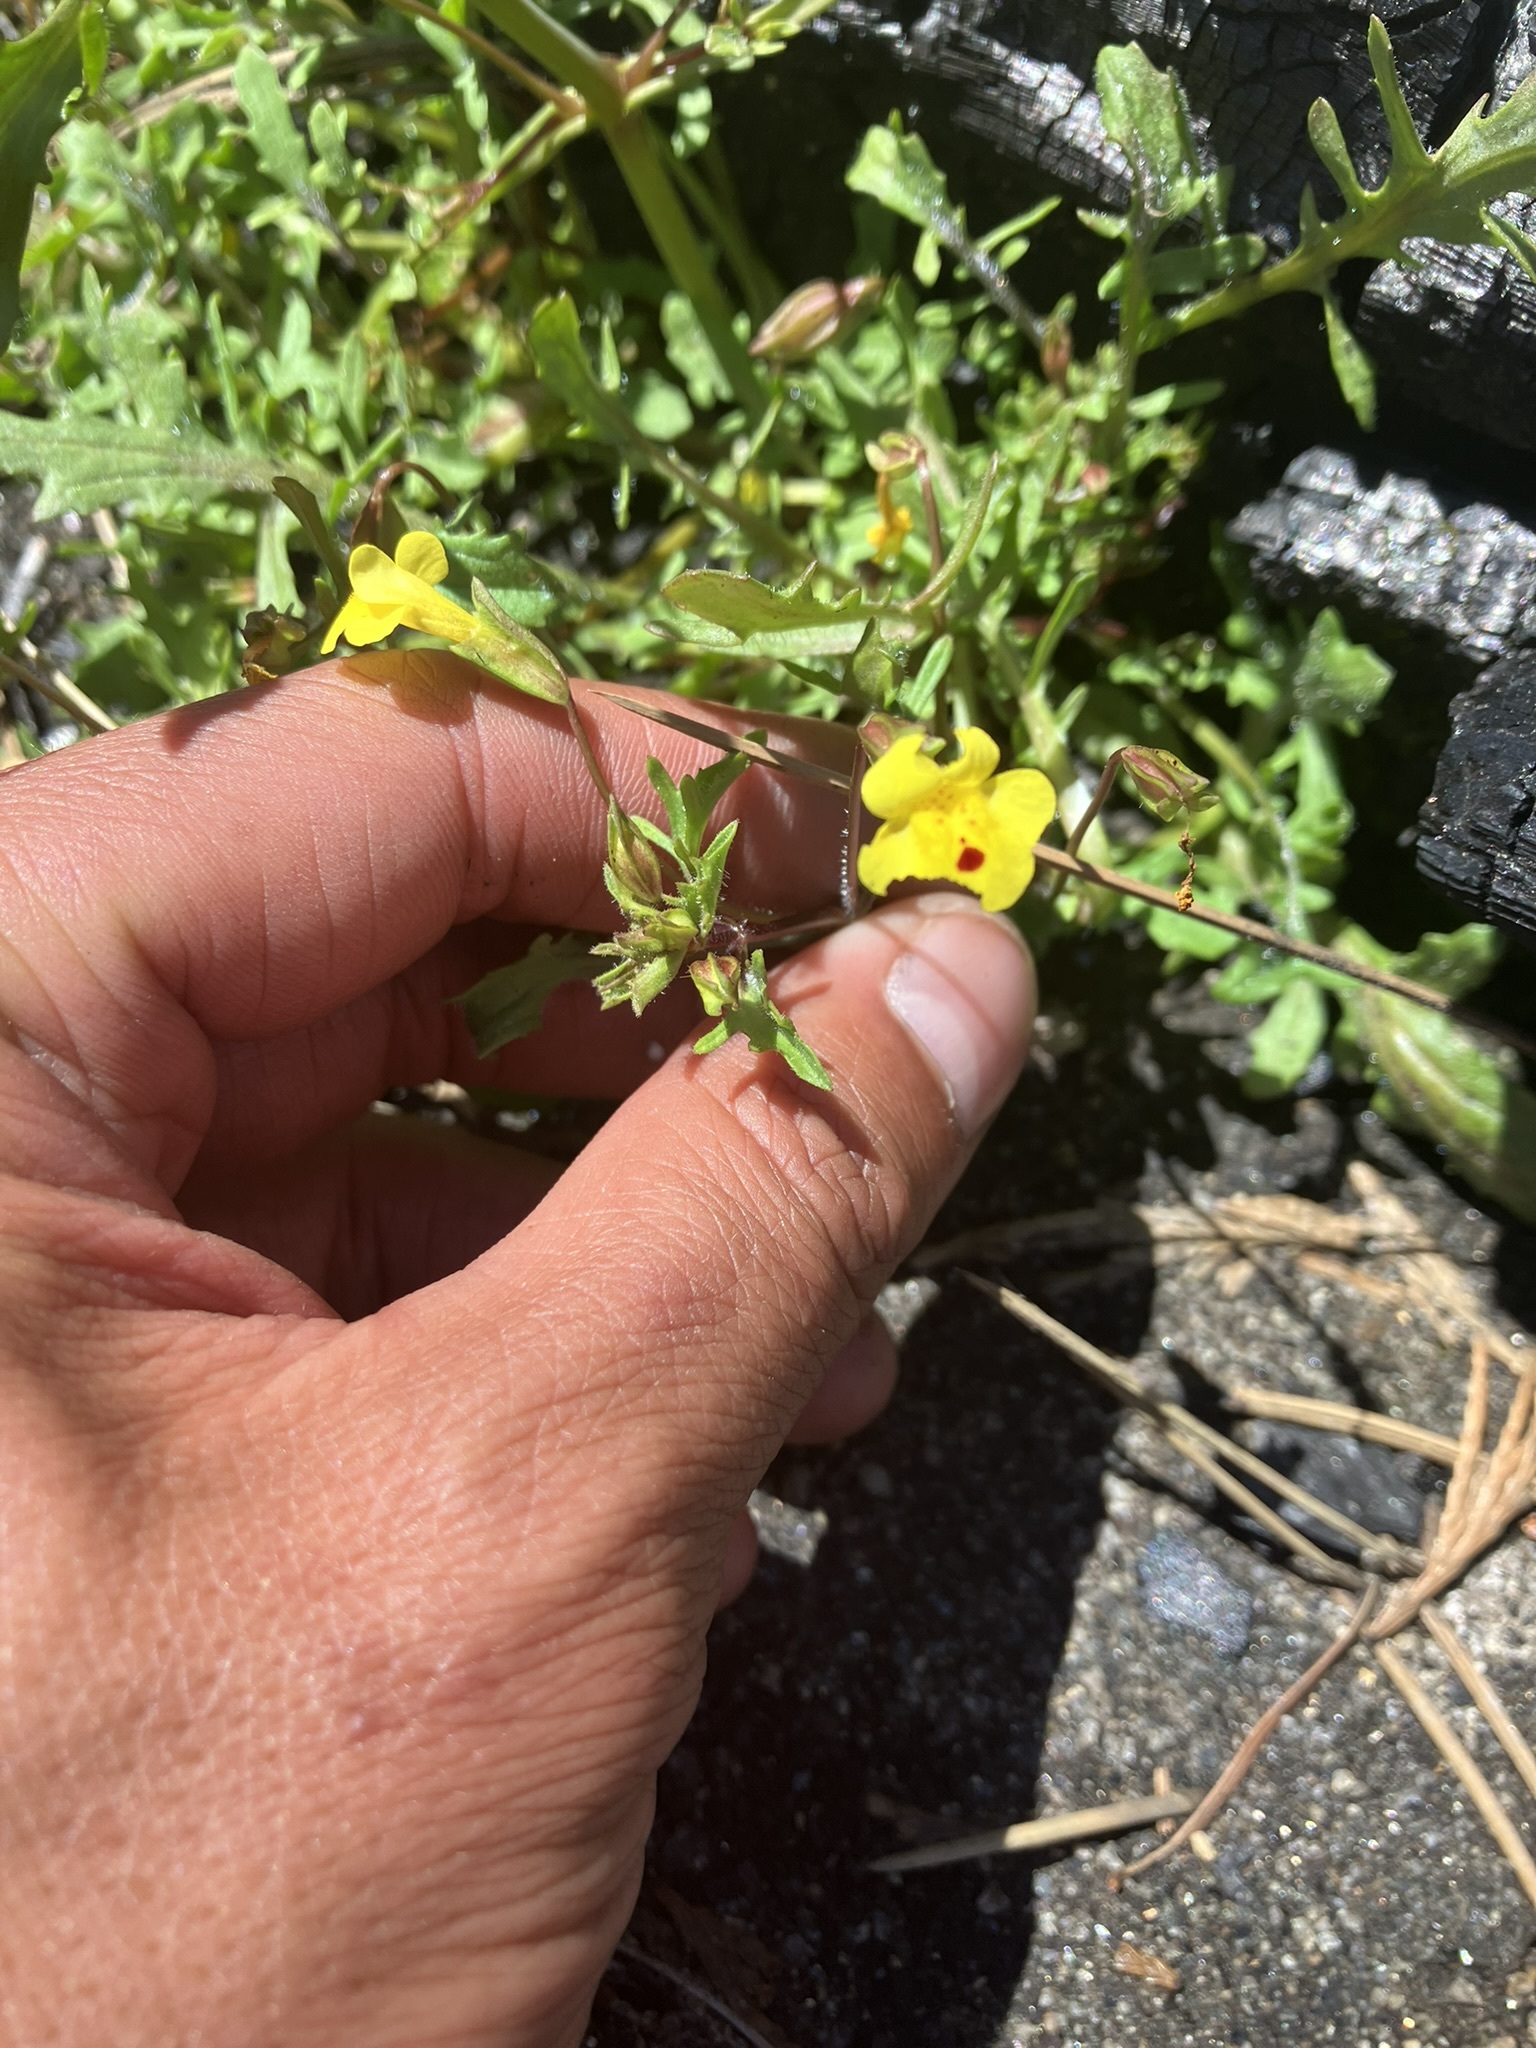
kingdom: Plantae
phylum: Tracheophyta
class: Magnoliopsida
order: Lamiales
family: Phrymaceae
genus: Erythranthe
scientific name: Erythranthe laciniata
